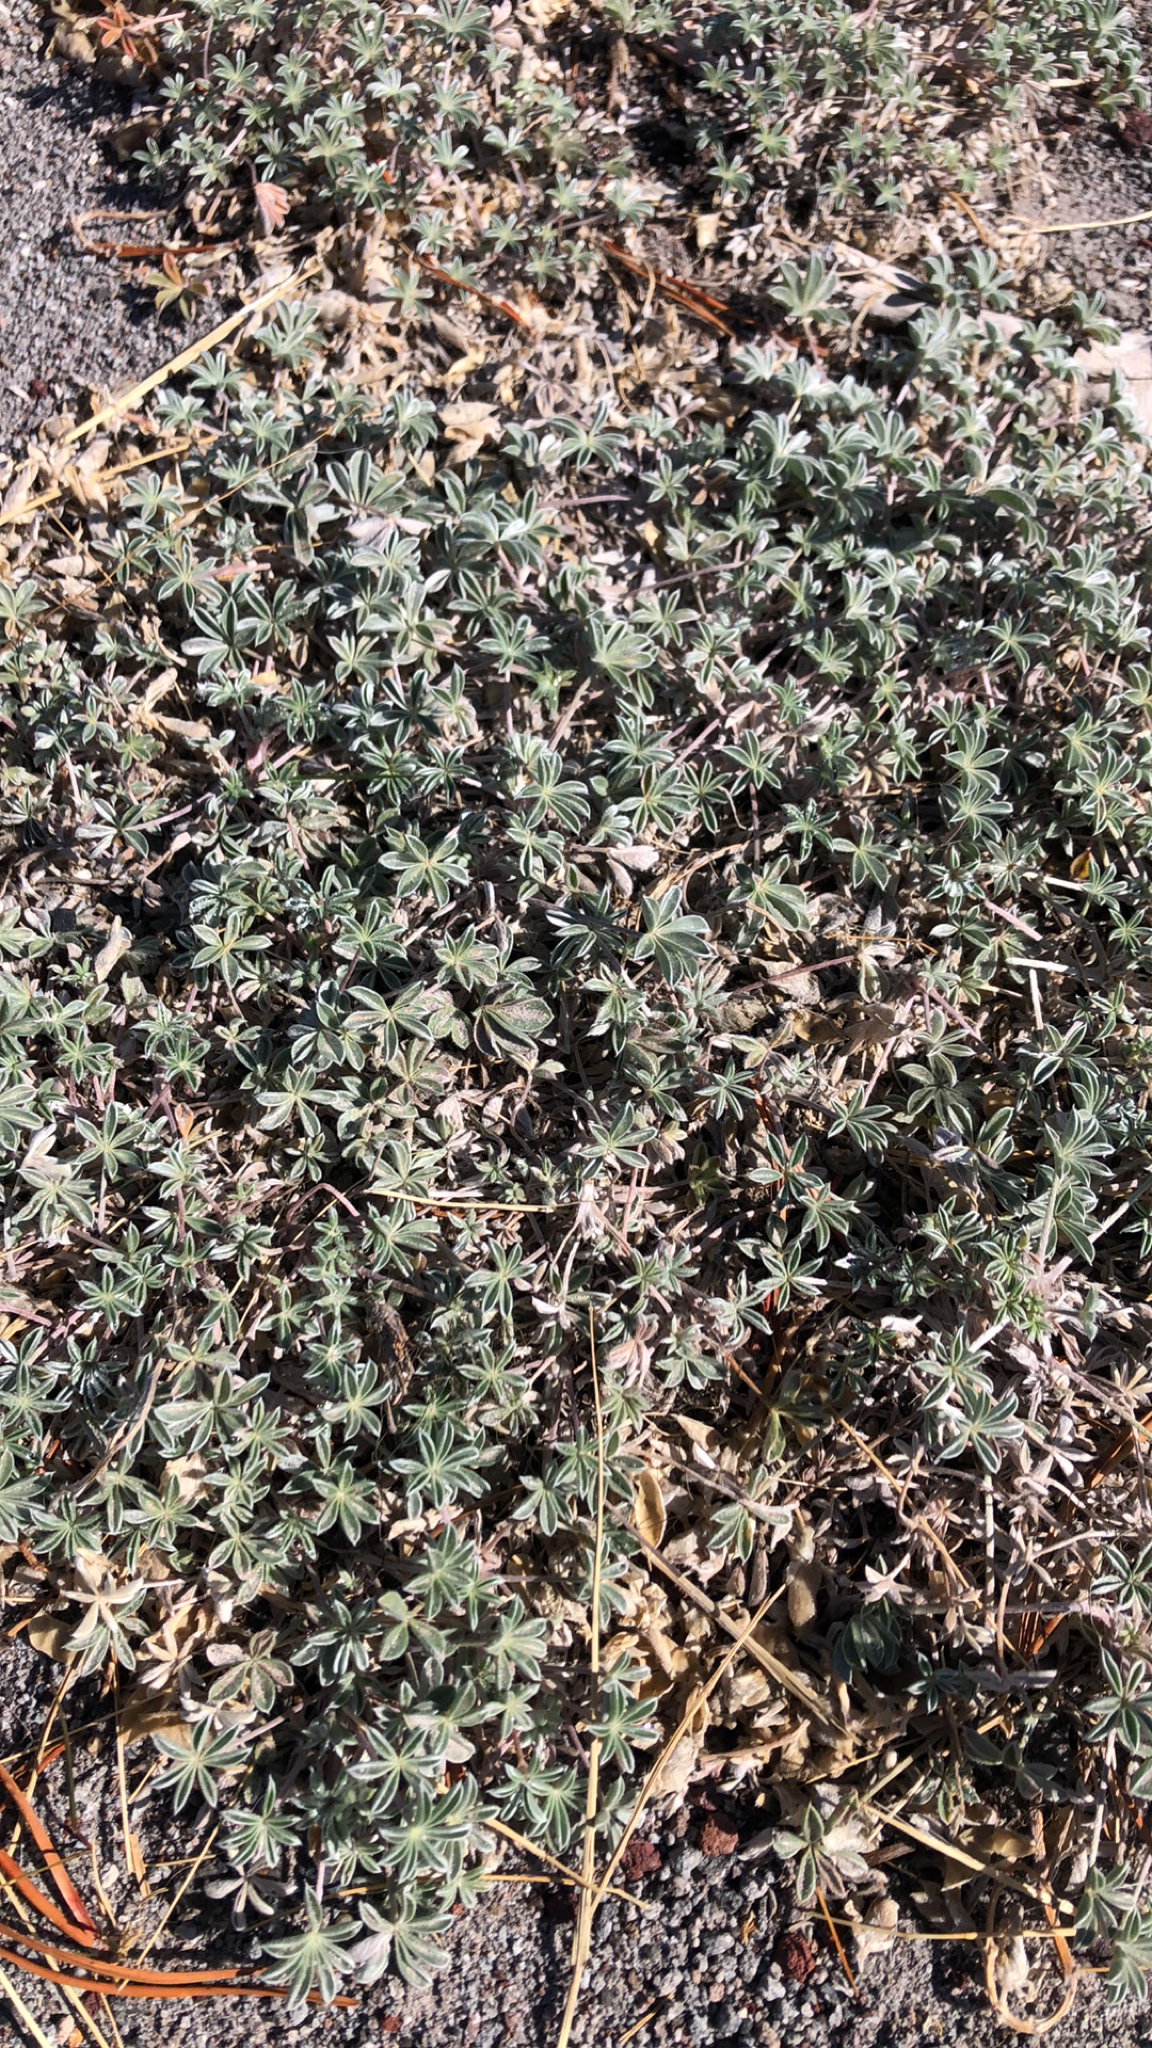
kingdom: Plantae
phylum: Tracheophyta
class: Magnoliopsida
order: Fabales
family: Fabaceae
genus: Lupinus
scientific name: Lupinus lepidus
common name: Prairie lupine
